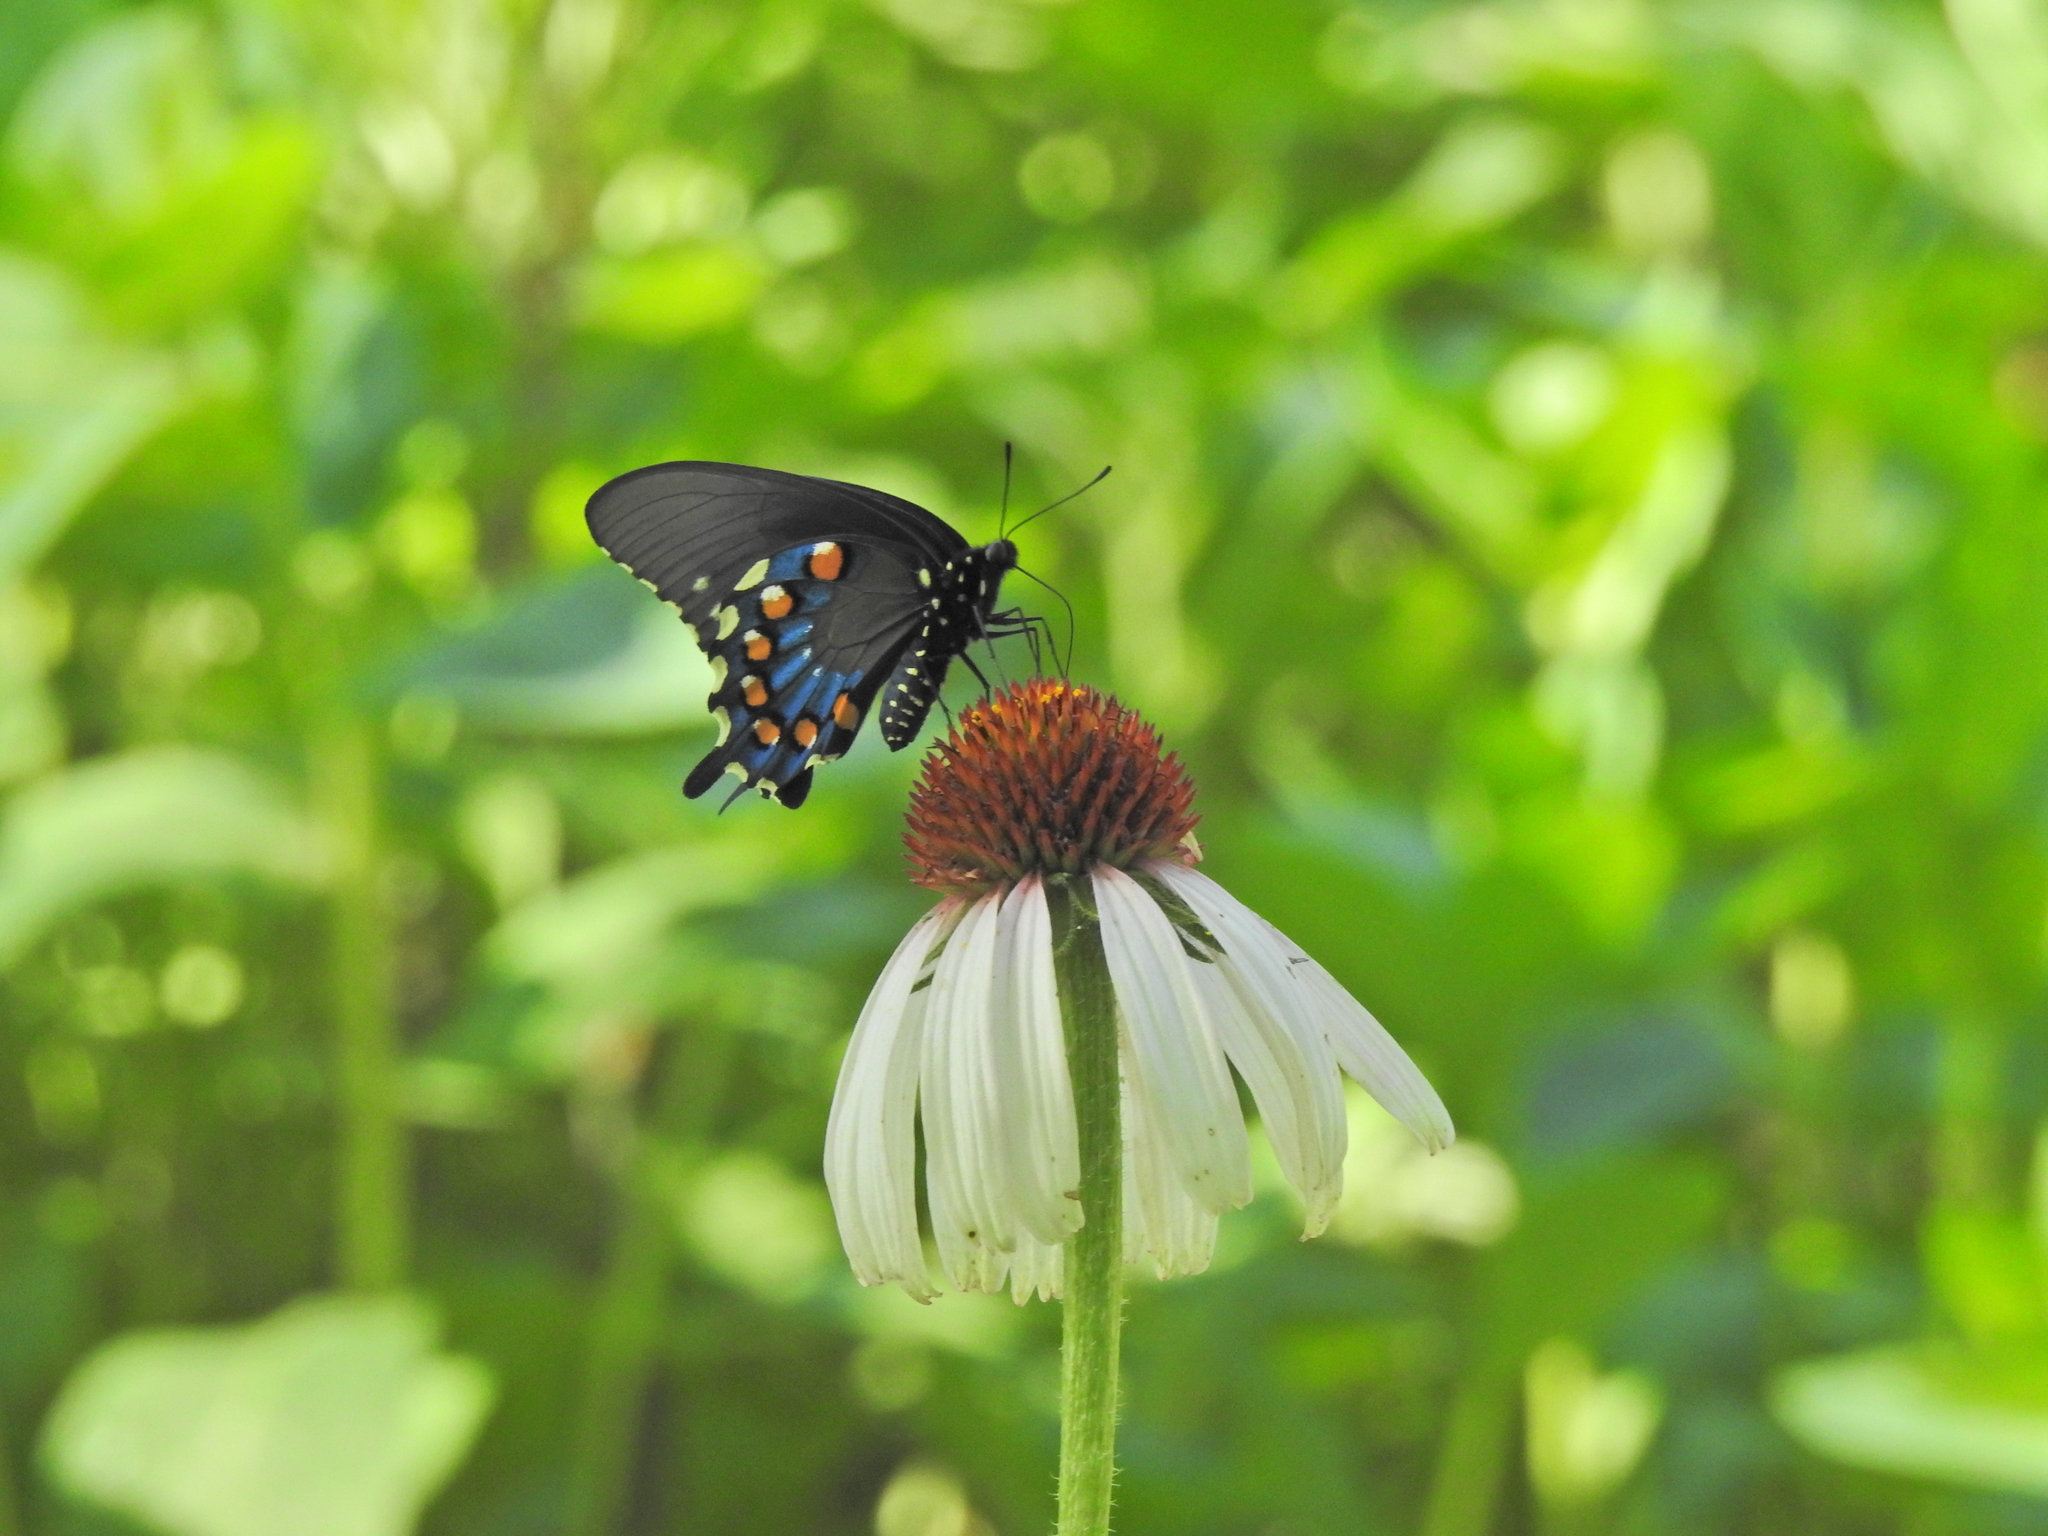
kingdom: Animalia
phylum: Arthropoda
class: Insecta
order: Lepidoptera
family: Papilionidae
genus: Battus
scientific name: Battus philenor
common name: Pipevine swallowtail
